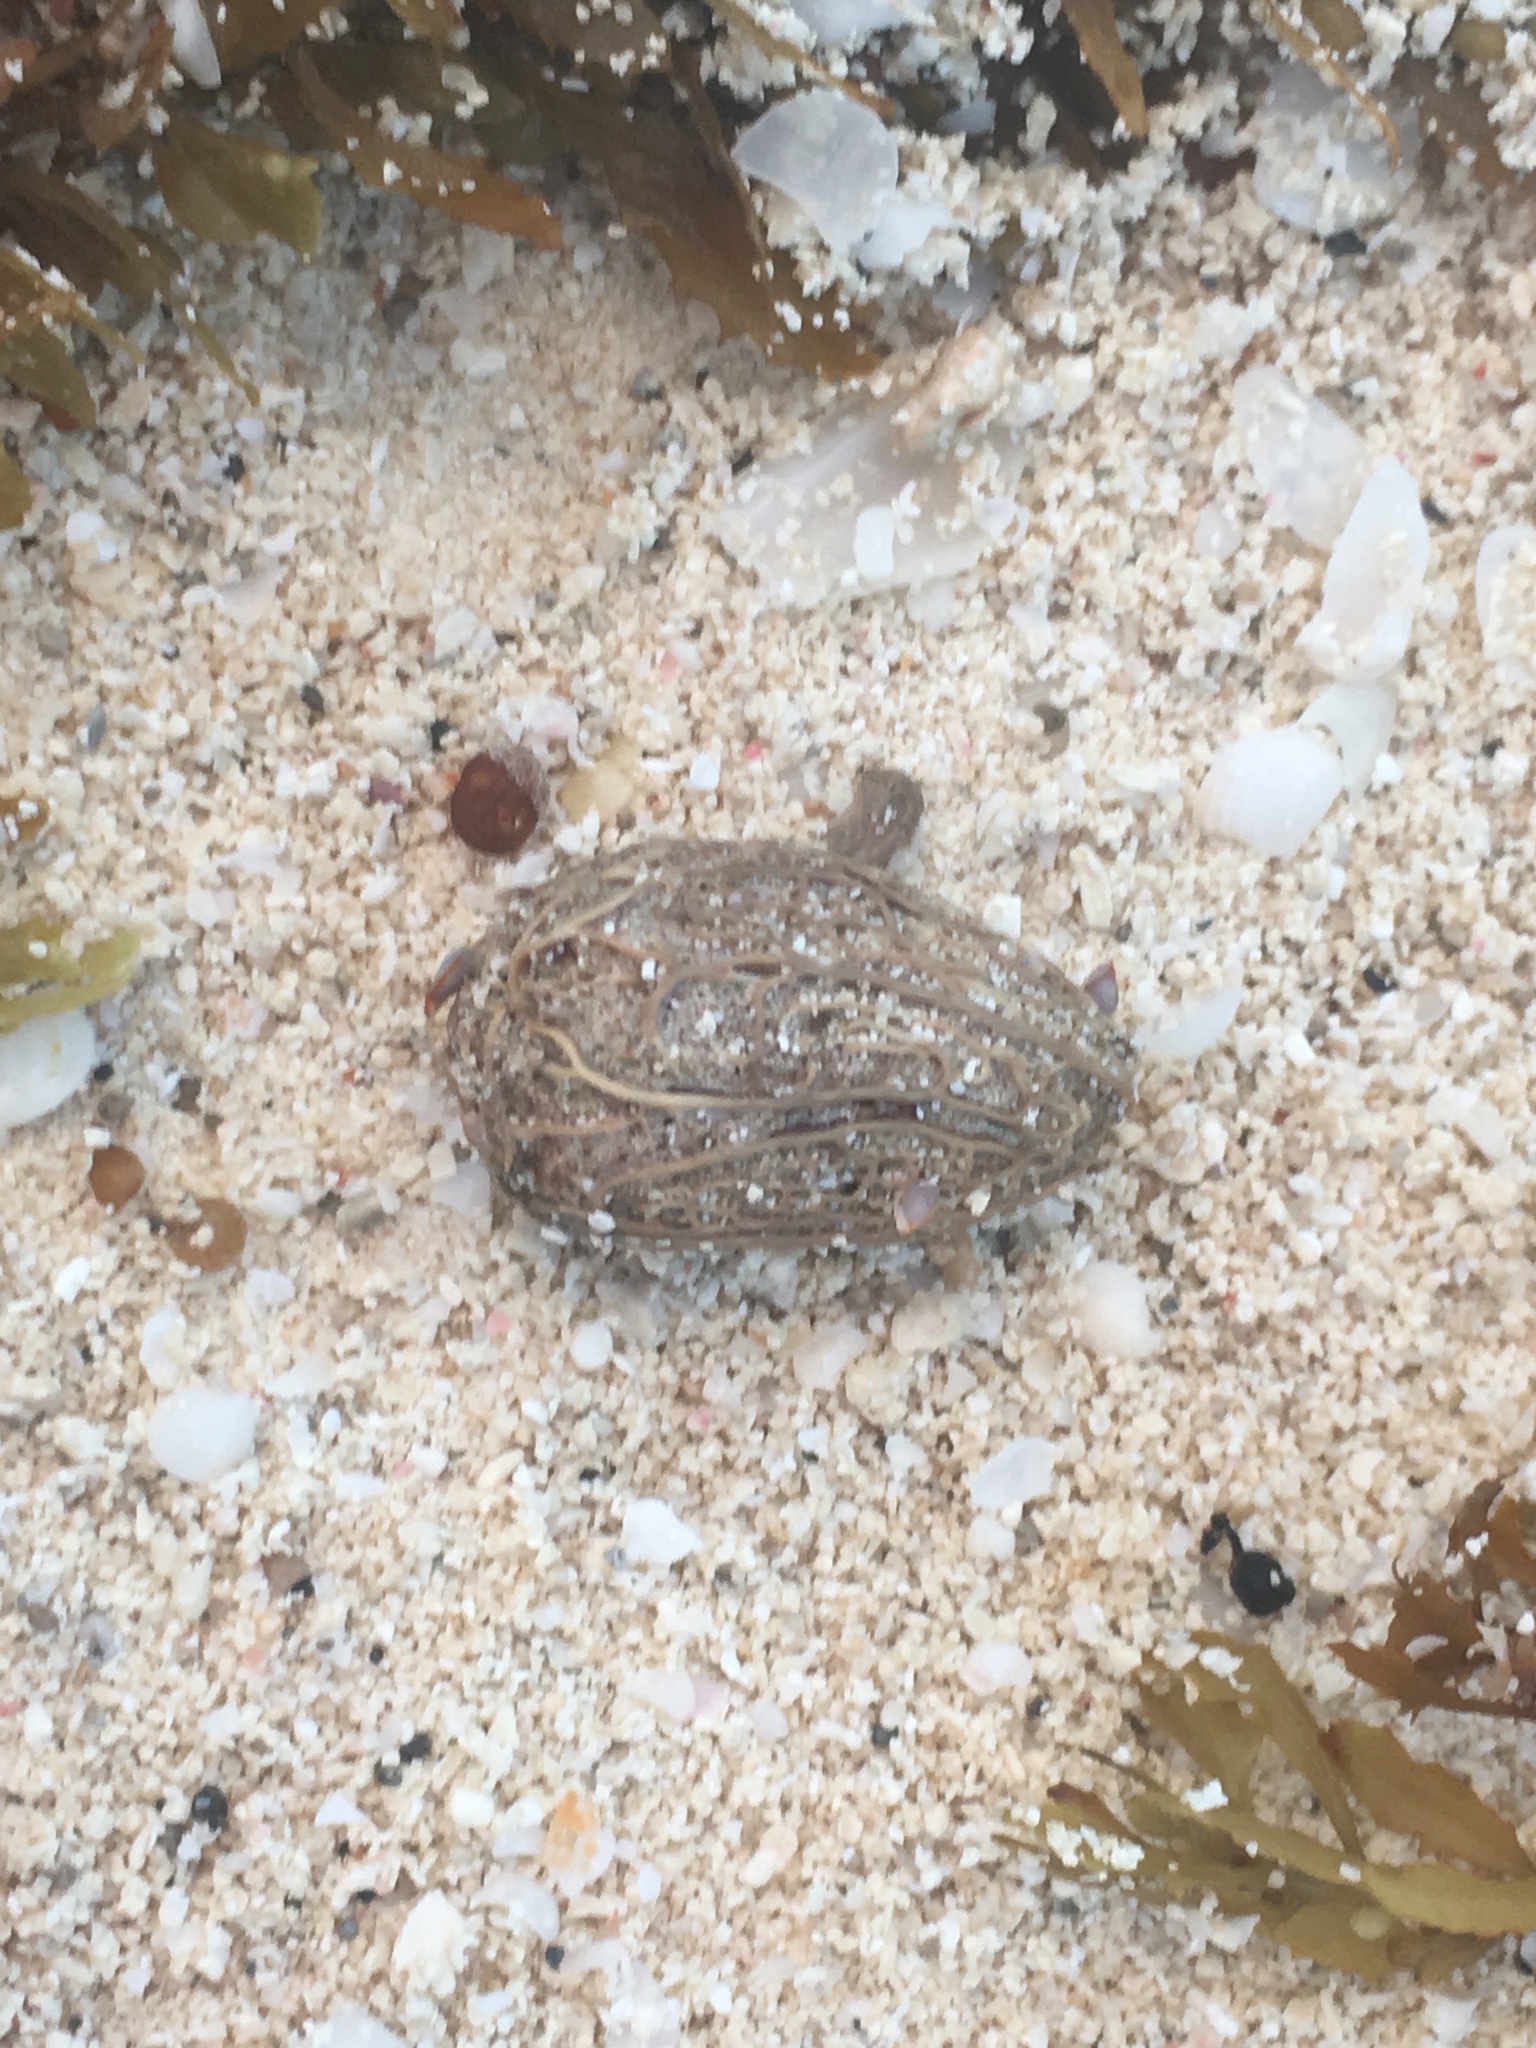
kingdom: Plantae
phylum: Tracheophyta
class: Magnoliopsida
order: Sapindales
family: Anacardiaceae
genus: Spondias
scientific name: Spondias mombin
